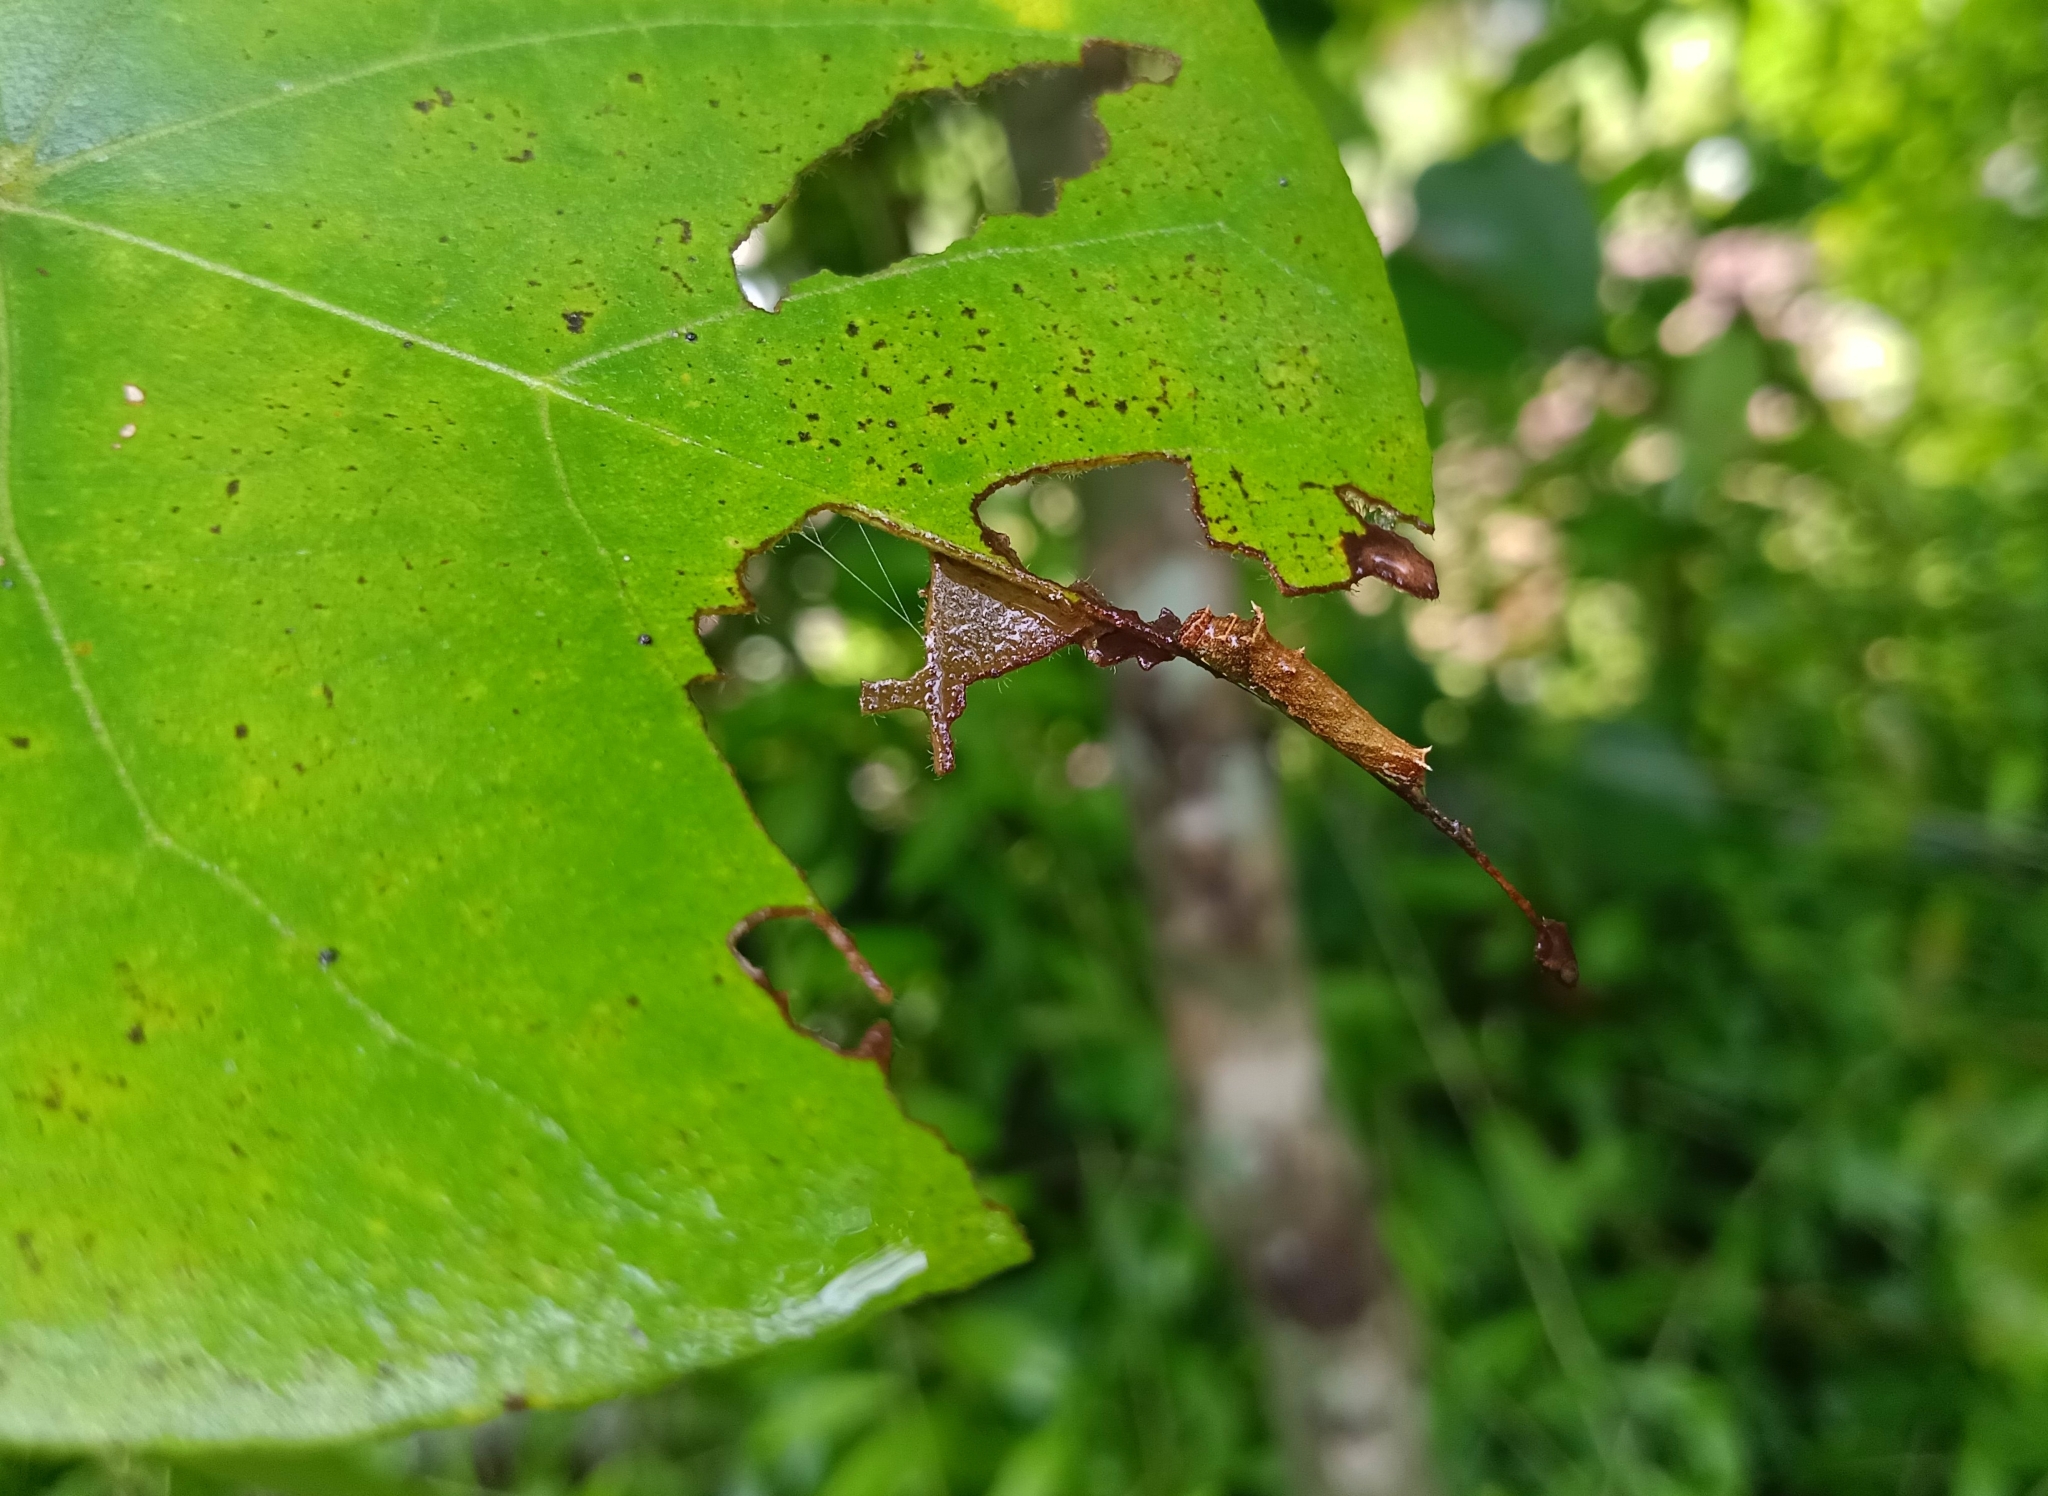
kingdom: Animalia
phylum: Arthropoda
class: Insecta
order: Lepidoptera
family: Nymphalidae
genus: Neptis
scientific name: Neptis jumbah
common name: Chestnut-streaked sailer
